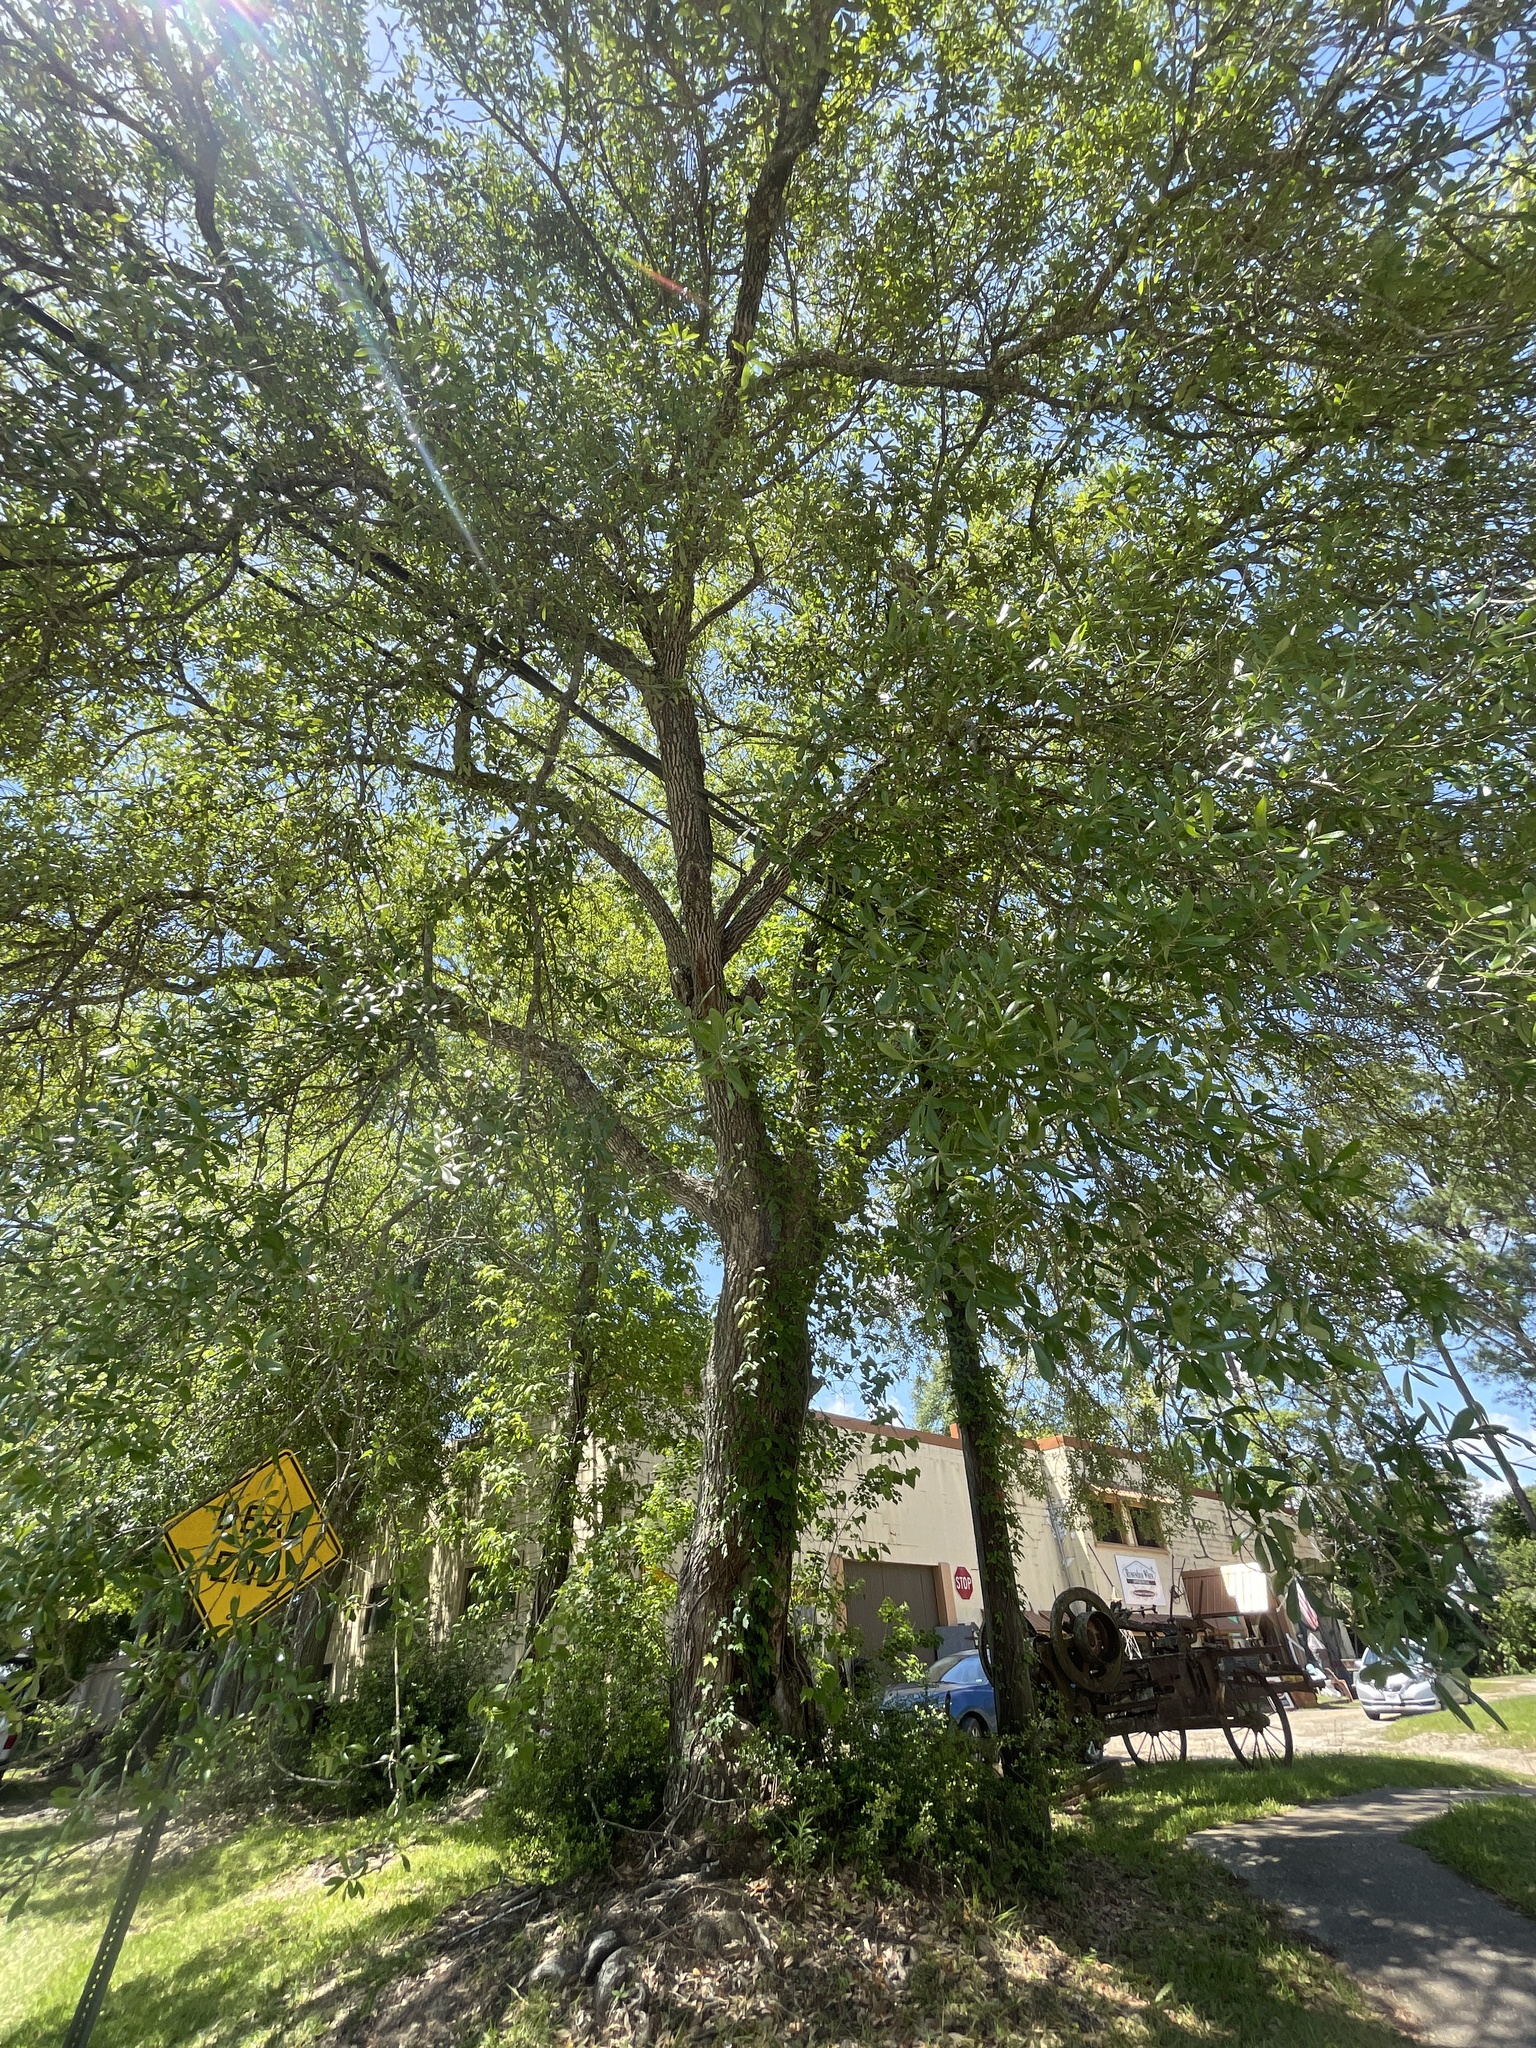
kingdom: Plantae
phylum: Tracheophyta
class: Magnoliopsida
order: Fagales
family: Fagaceae
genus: Quercus
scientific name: Quercus virginiana
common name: Southern live oak
